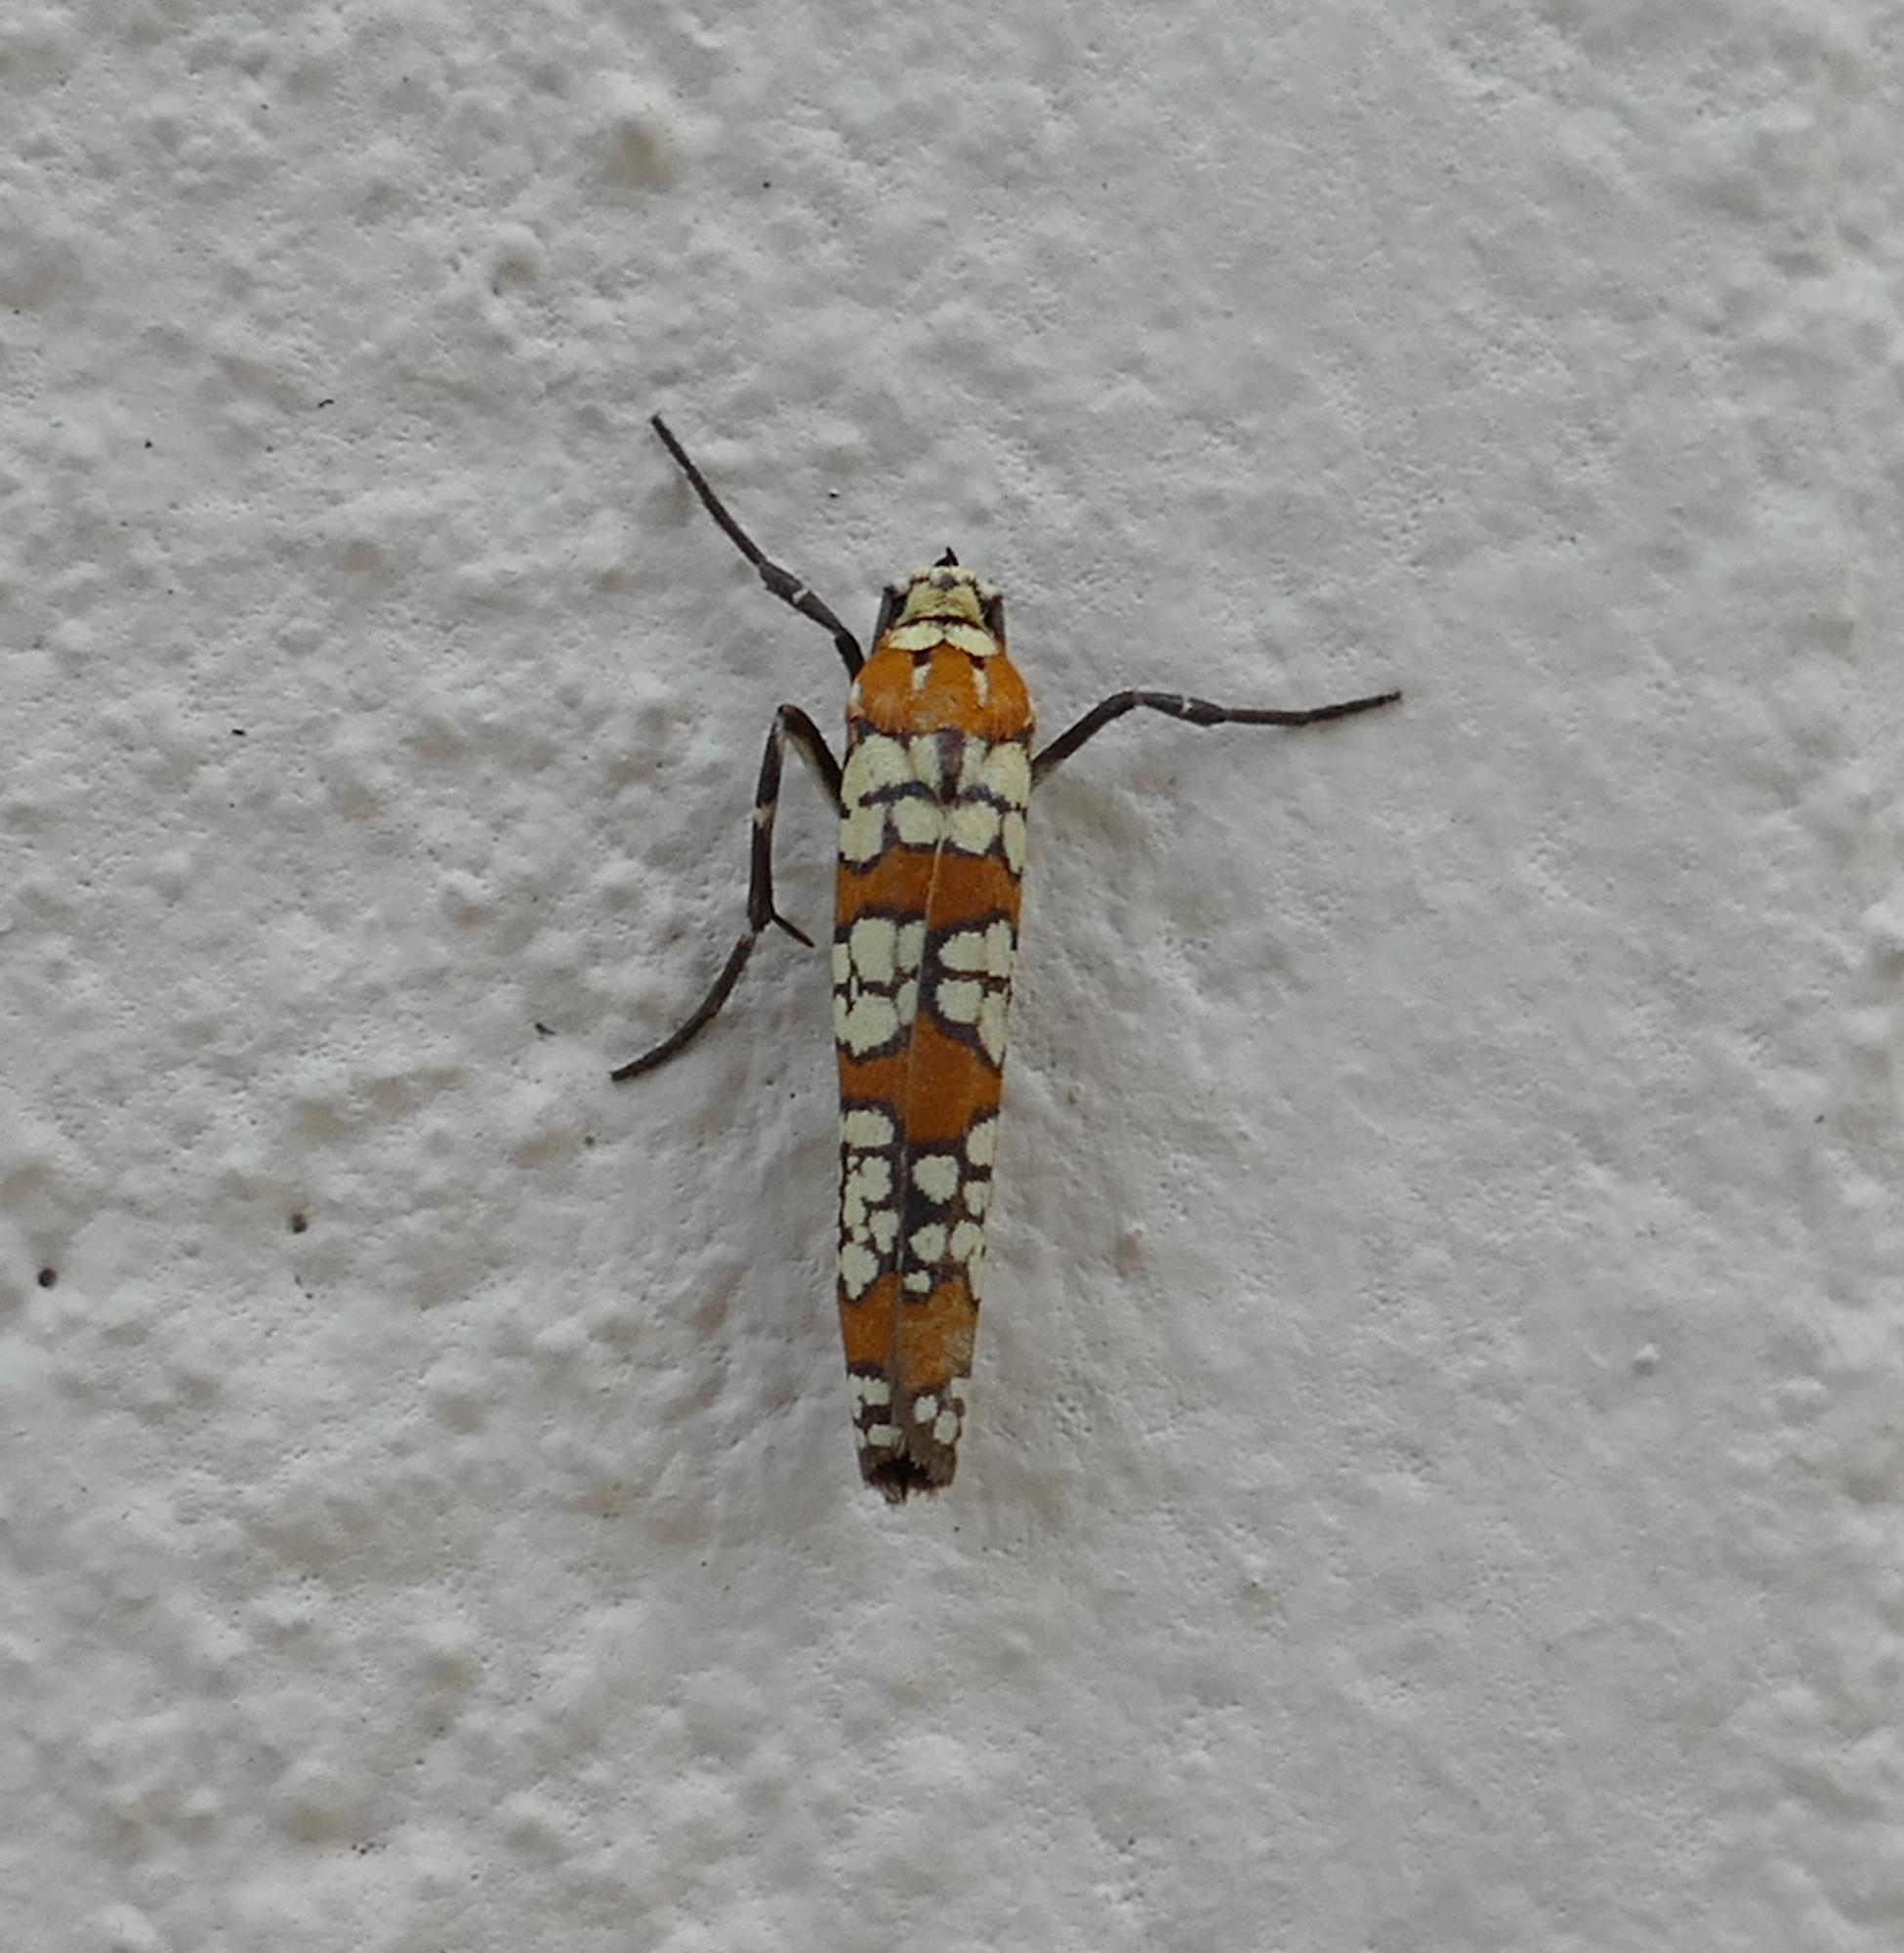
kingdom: Animalia
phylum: Arthropoda
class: Insecta
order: Lepidoptera
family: Attevidae
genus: Atteva
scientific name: Atteva punctella
